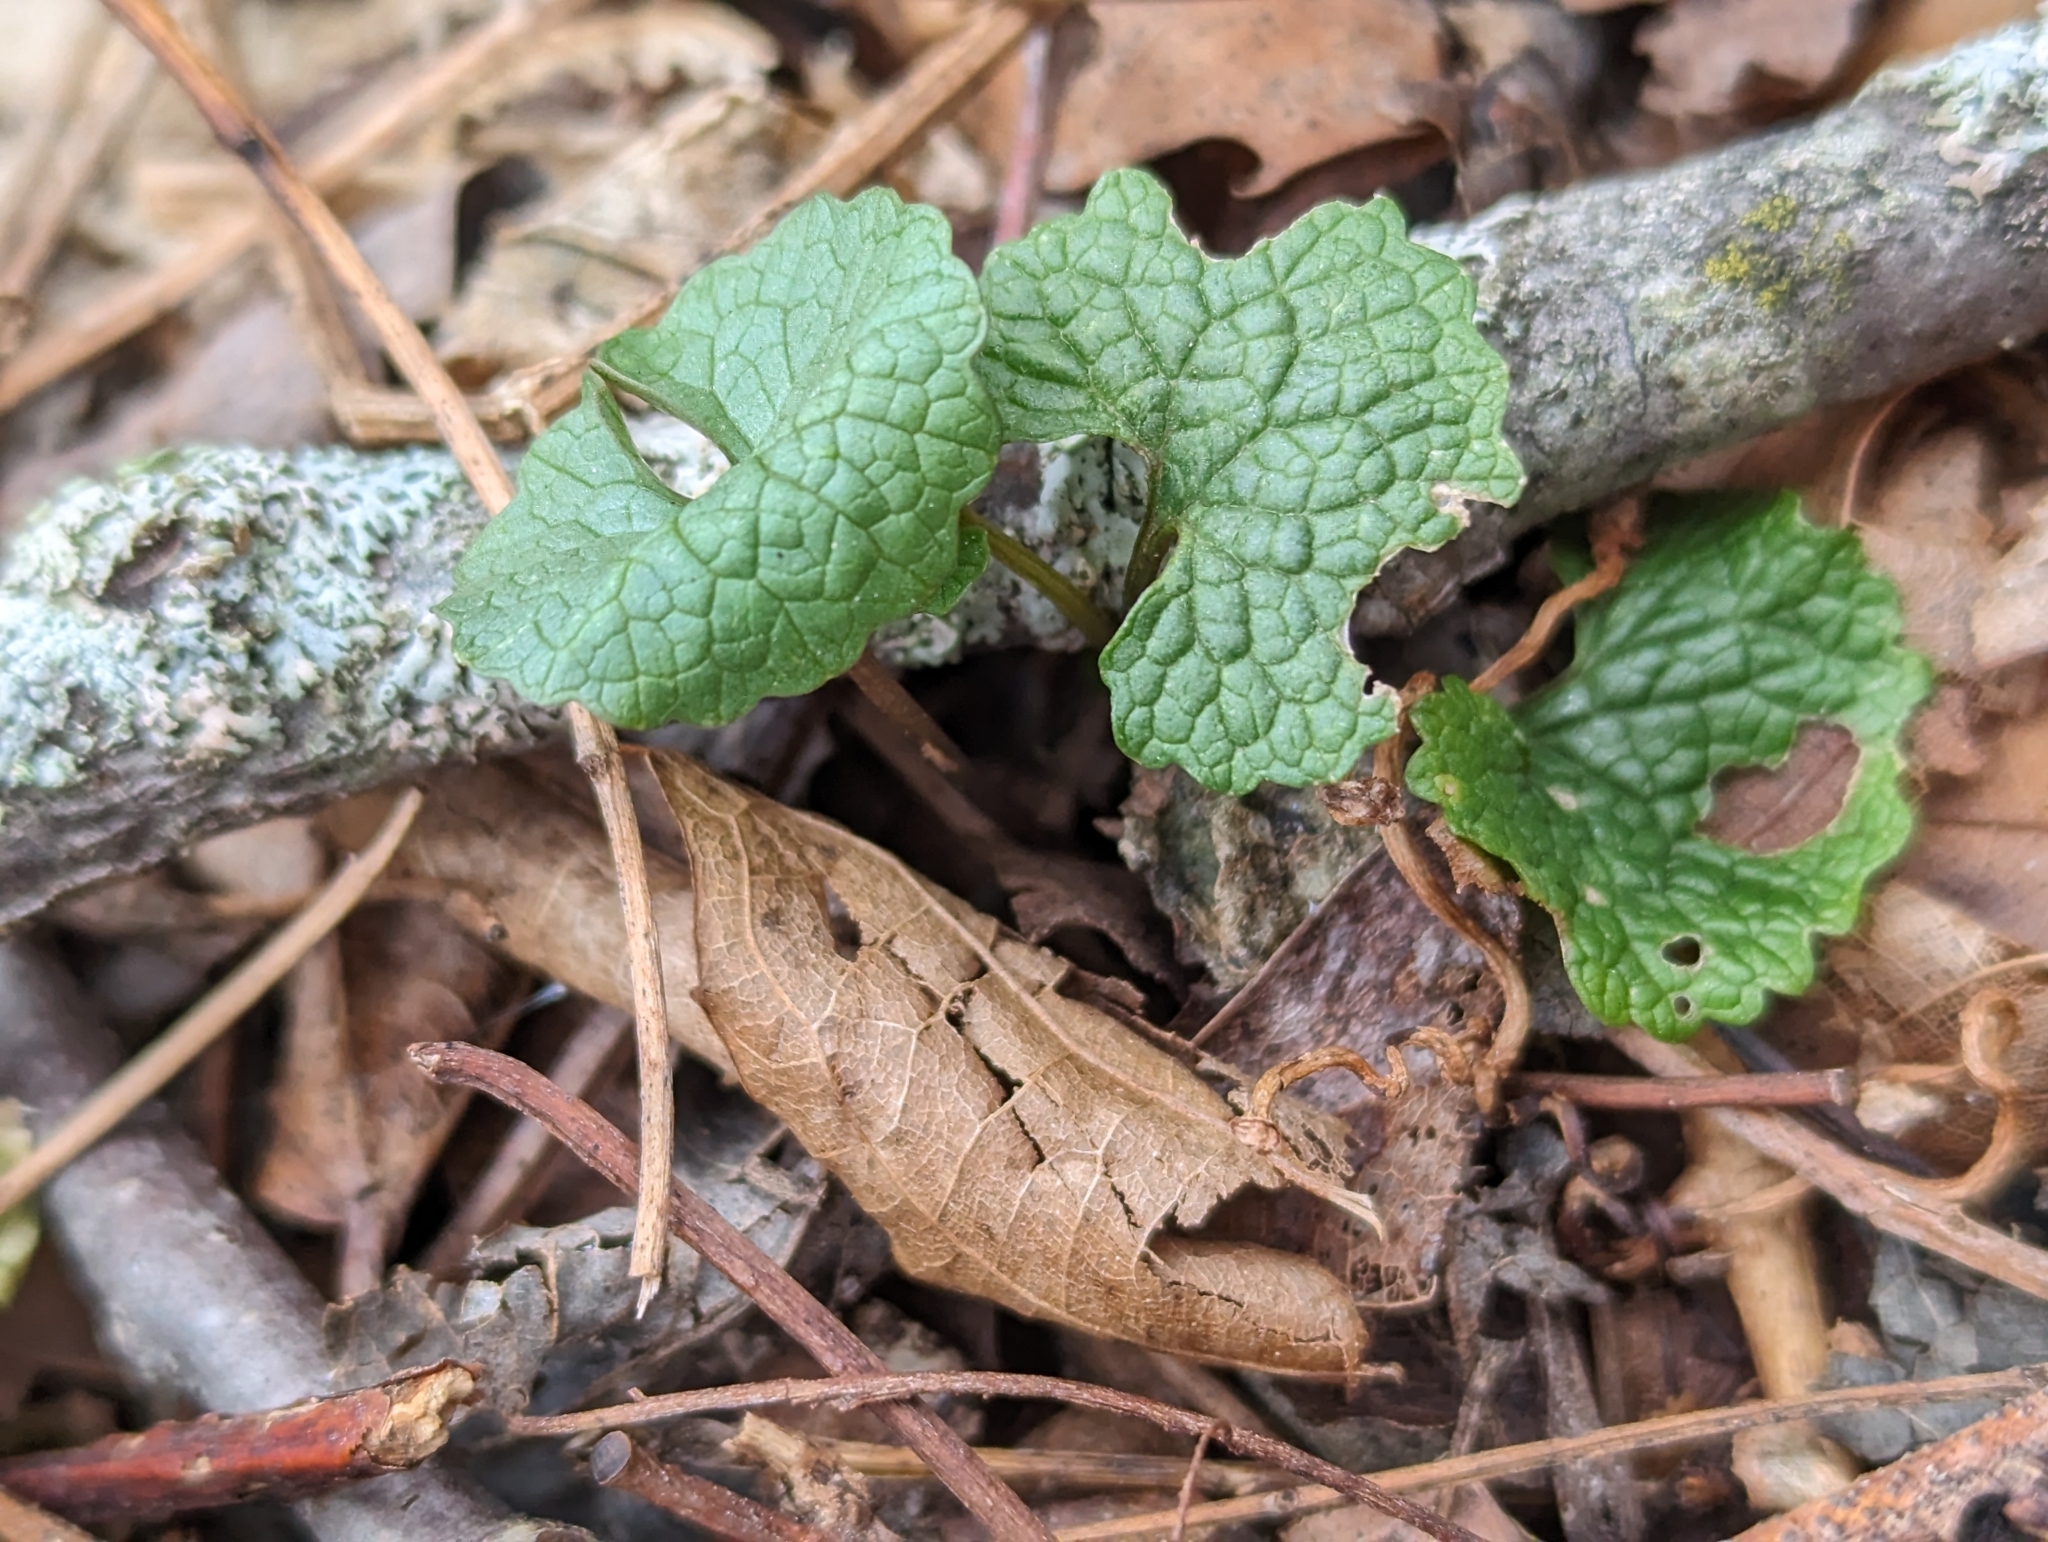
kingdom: Plantae
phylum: Tracheophyta
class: Magnoliopsida
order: Brassicales
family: Brassicaceae
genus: Alliaria
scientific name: Alliaria petiolata
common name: Garlic mustard
